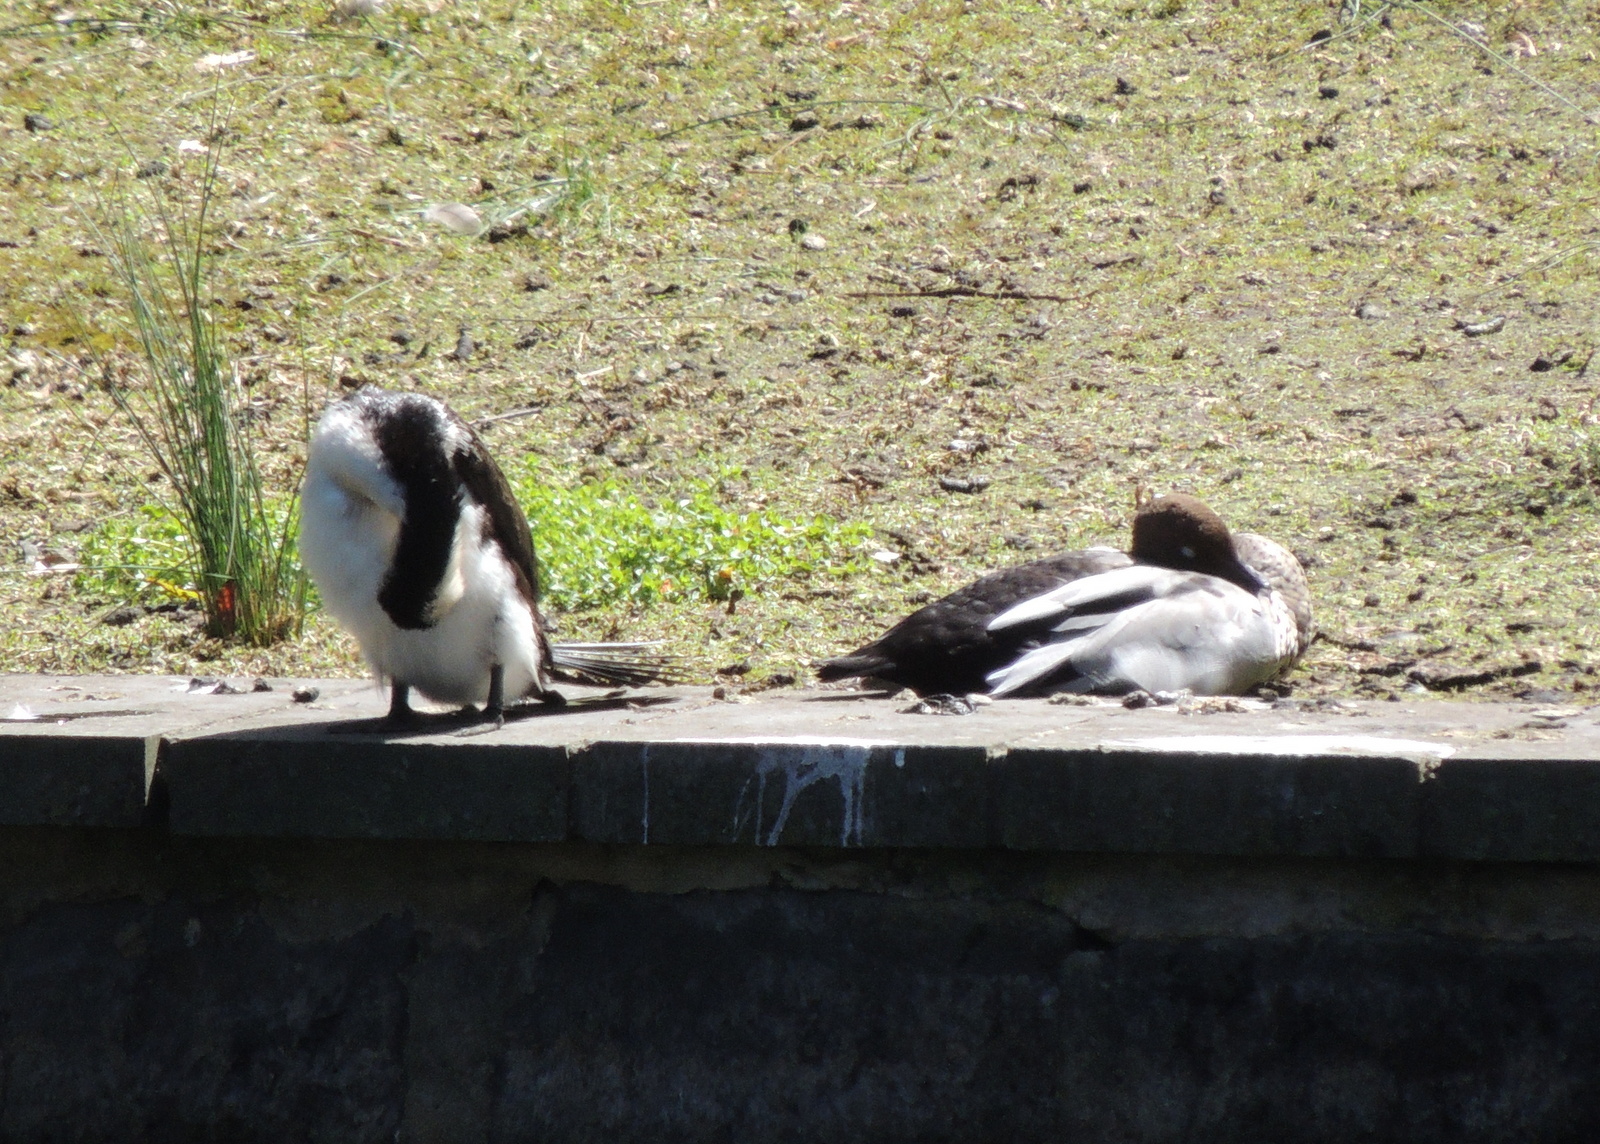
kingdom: Animalia
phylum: Chordata
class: Aves
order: Suliformes
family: Phalacrocoracidae
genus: Microcarbo
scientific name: Microcarbo melanoleucos
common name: Little pied cormorant
